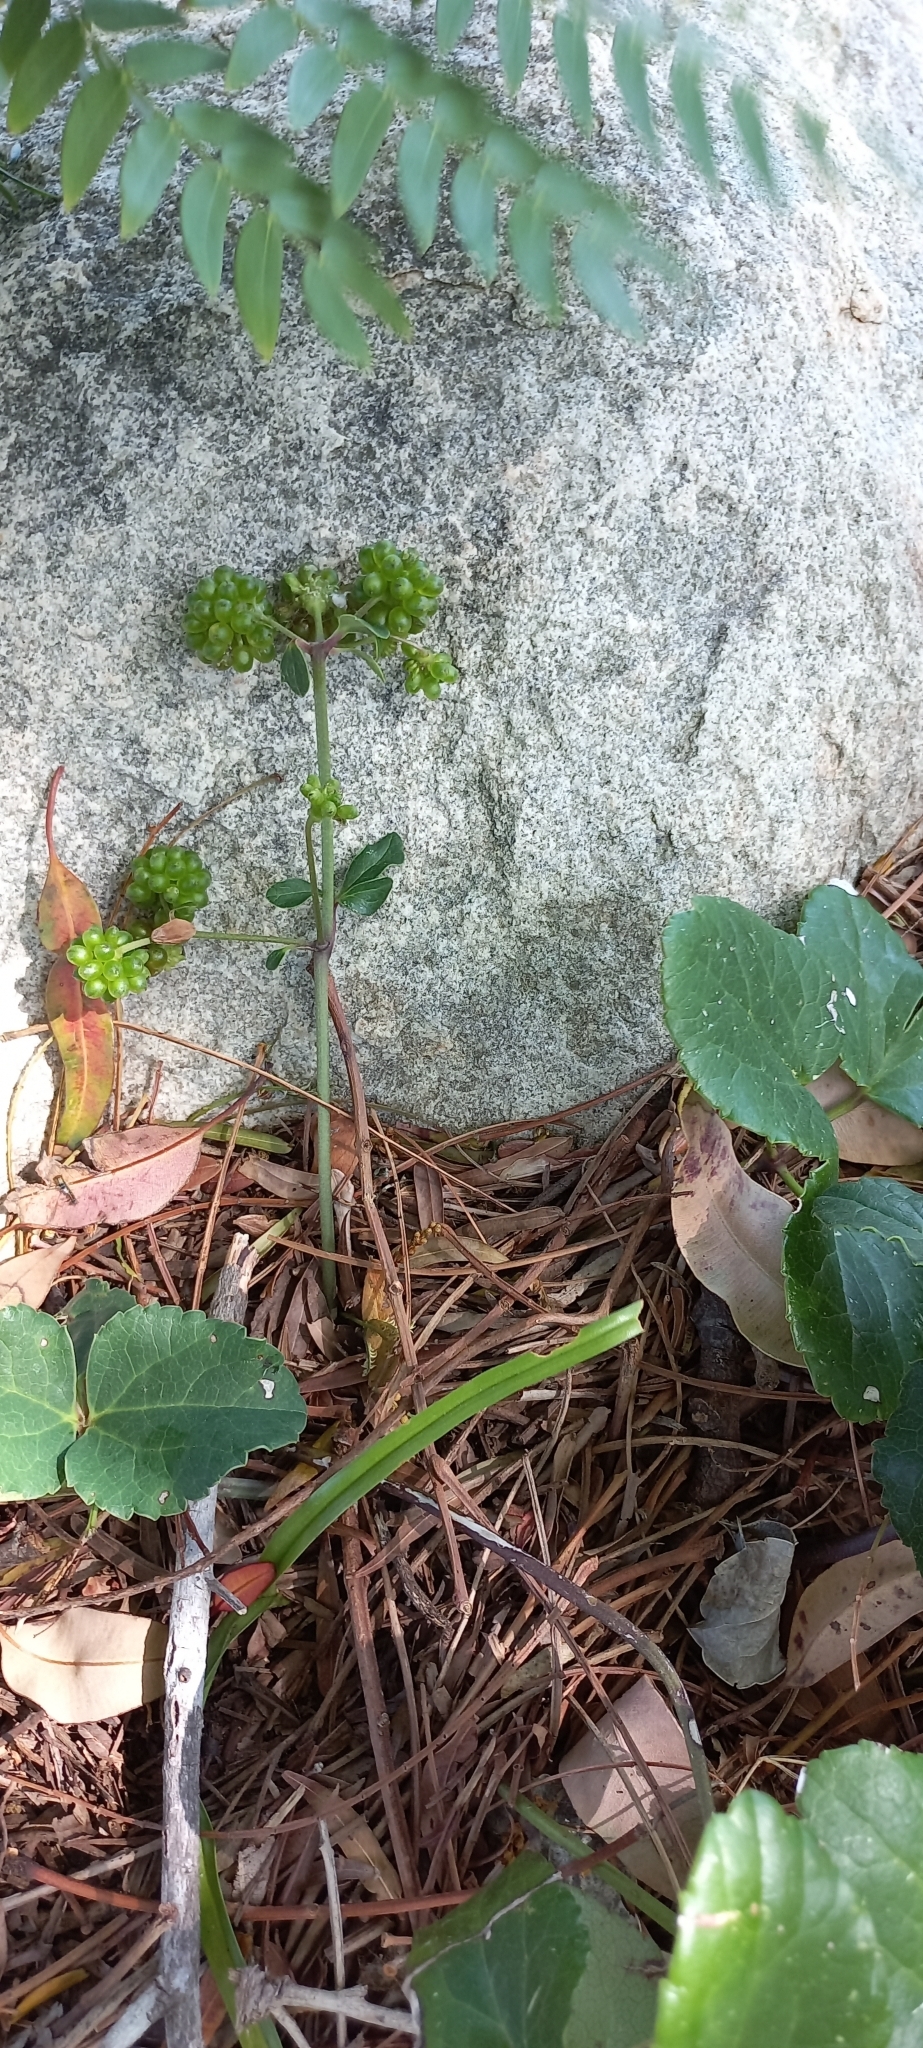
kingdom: Plantae
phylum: Tracheophyta
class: Magnoliopsida
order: Ranunculales
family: Ranunculaceae
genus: Knowltonia
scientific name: Knowltonia vesicatoria
